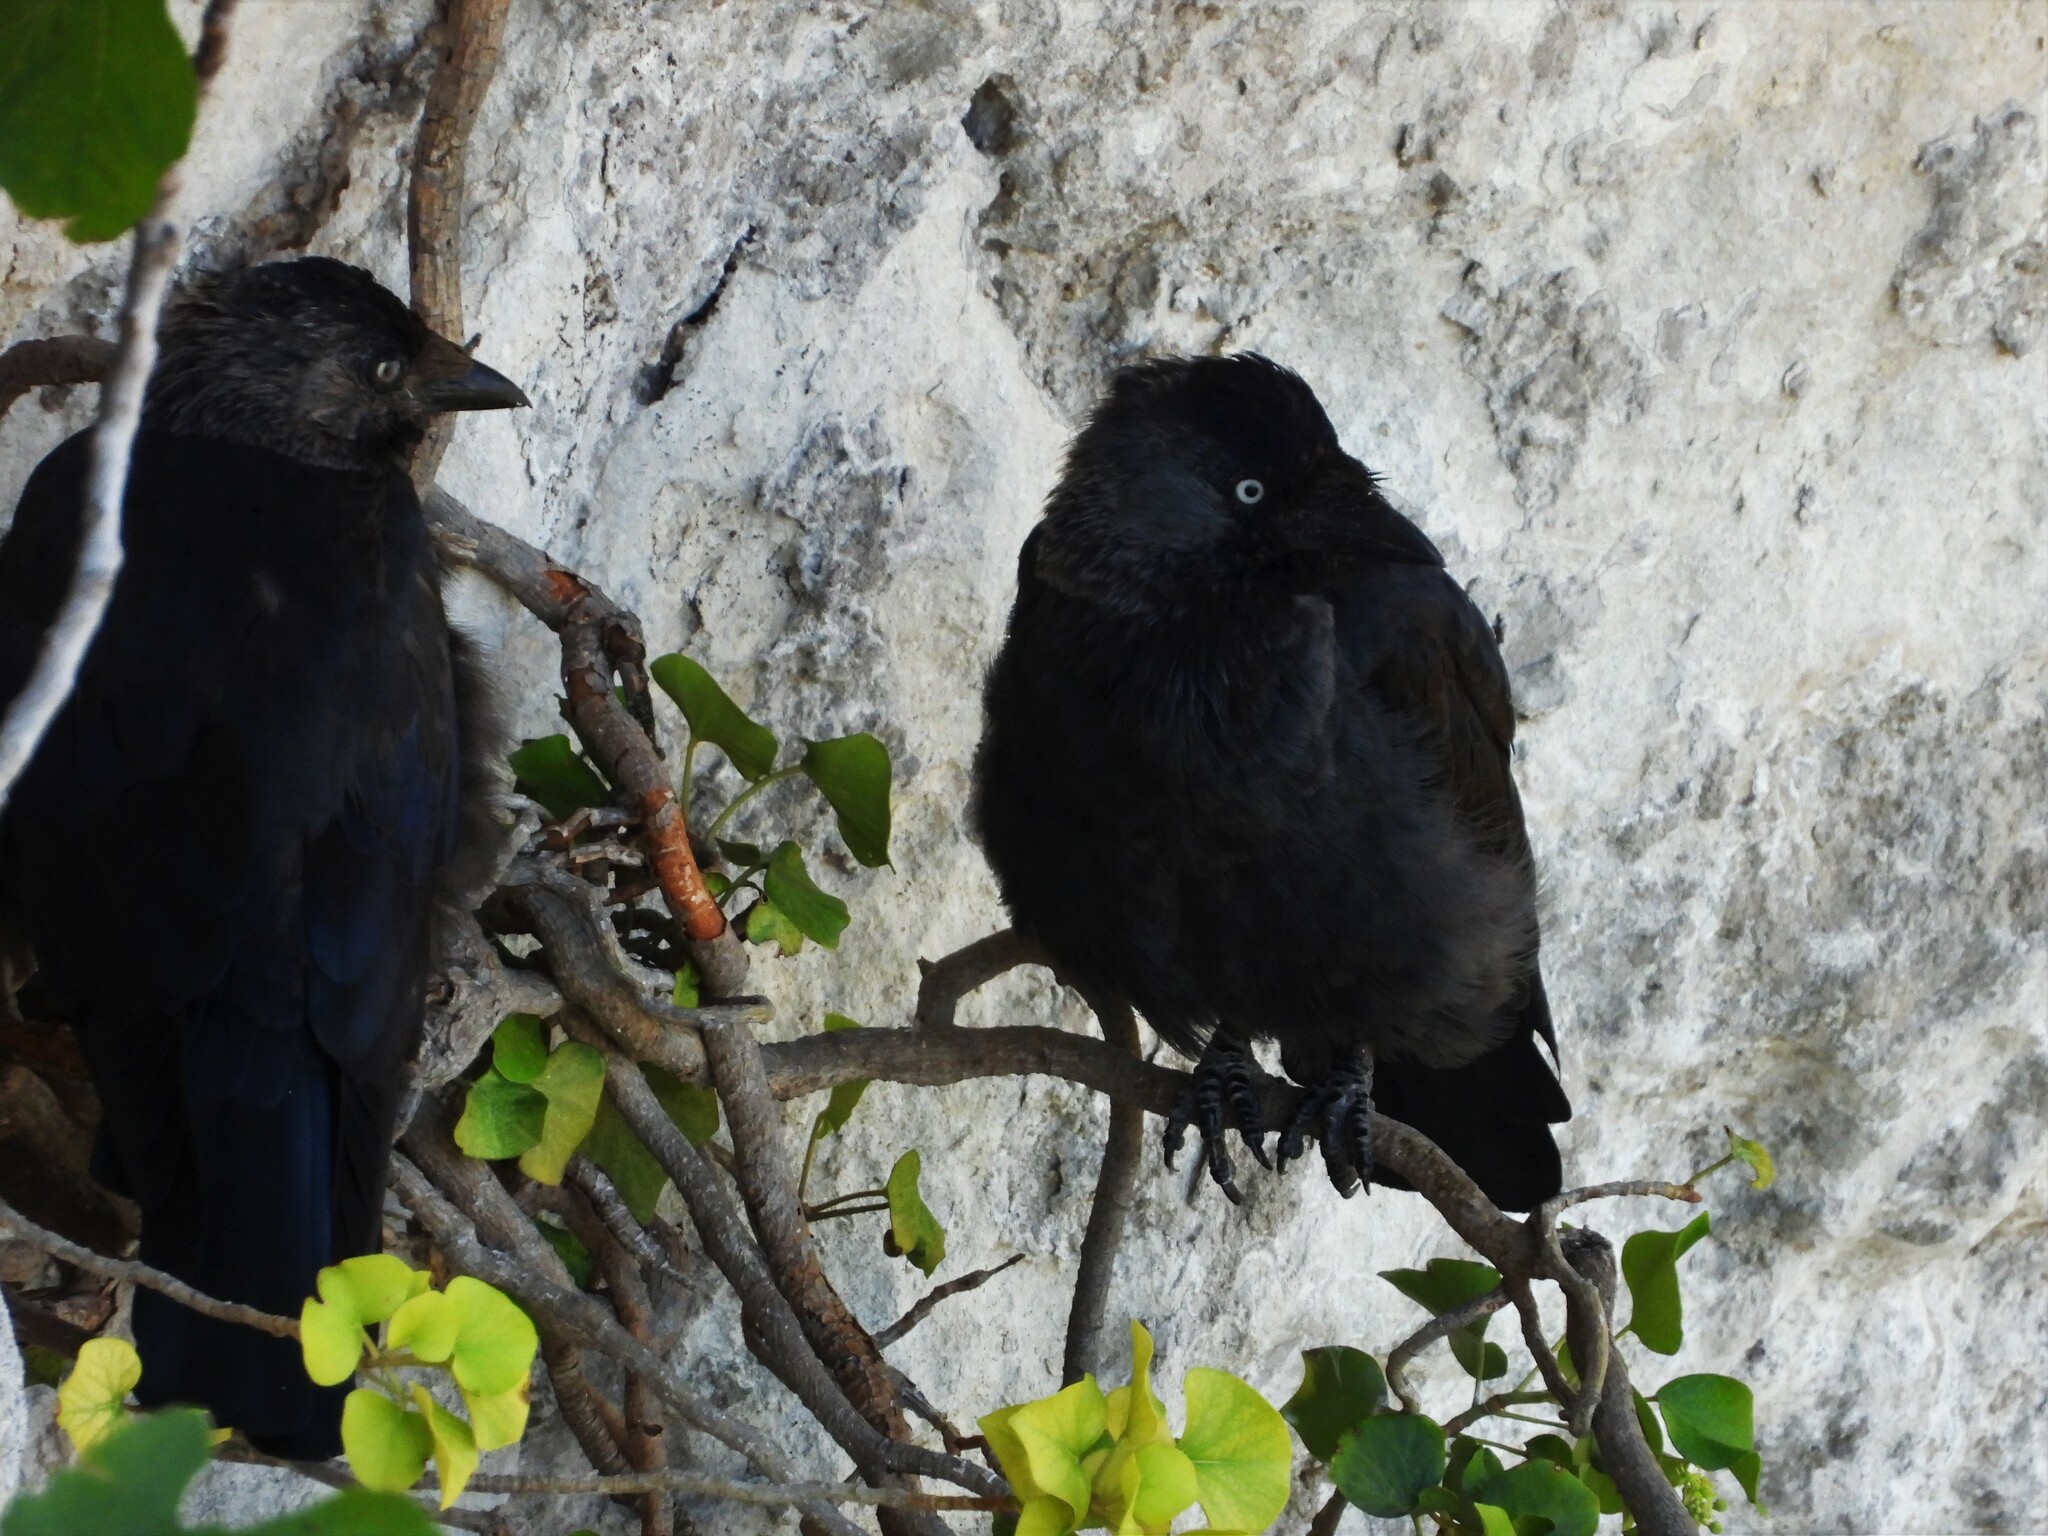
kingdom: Animalia
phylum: Chordata
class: Aves
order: Passeriformes
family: Corvidae
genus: Coloeus
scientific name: Coloeus monedula
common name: Western jackdaw
